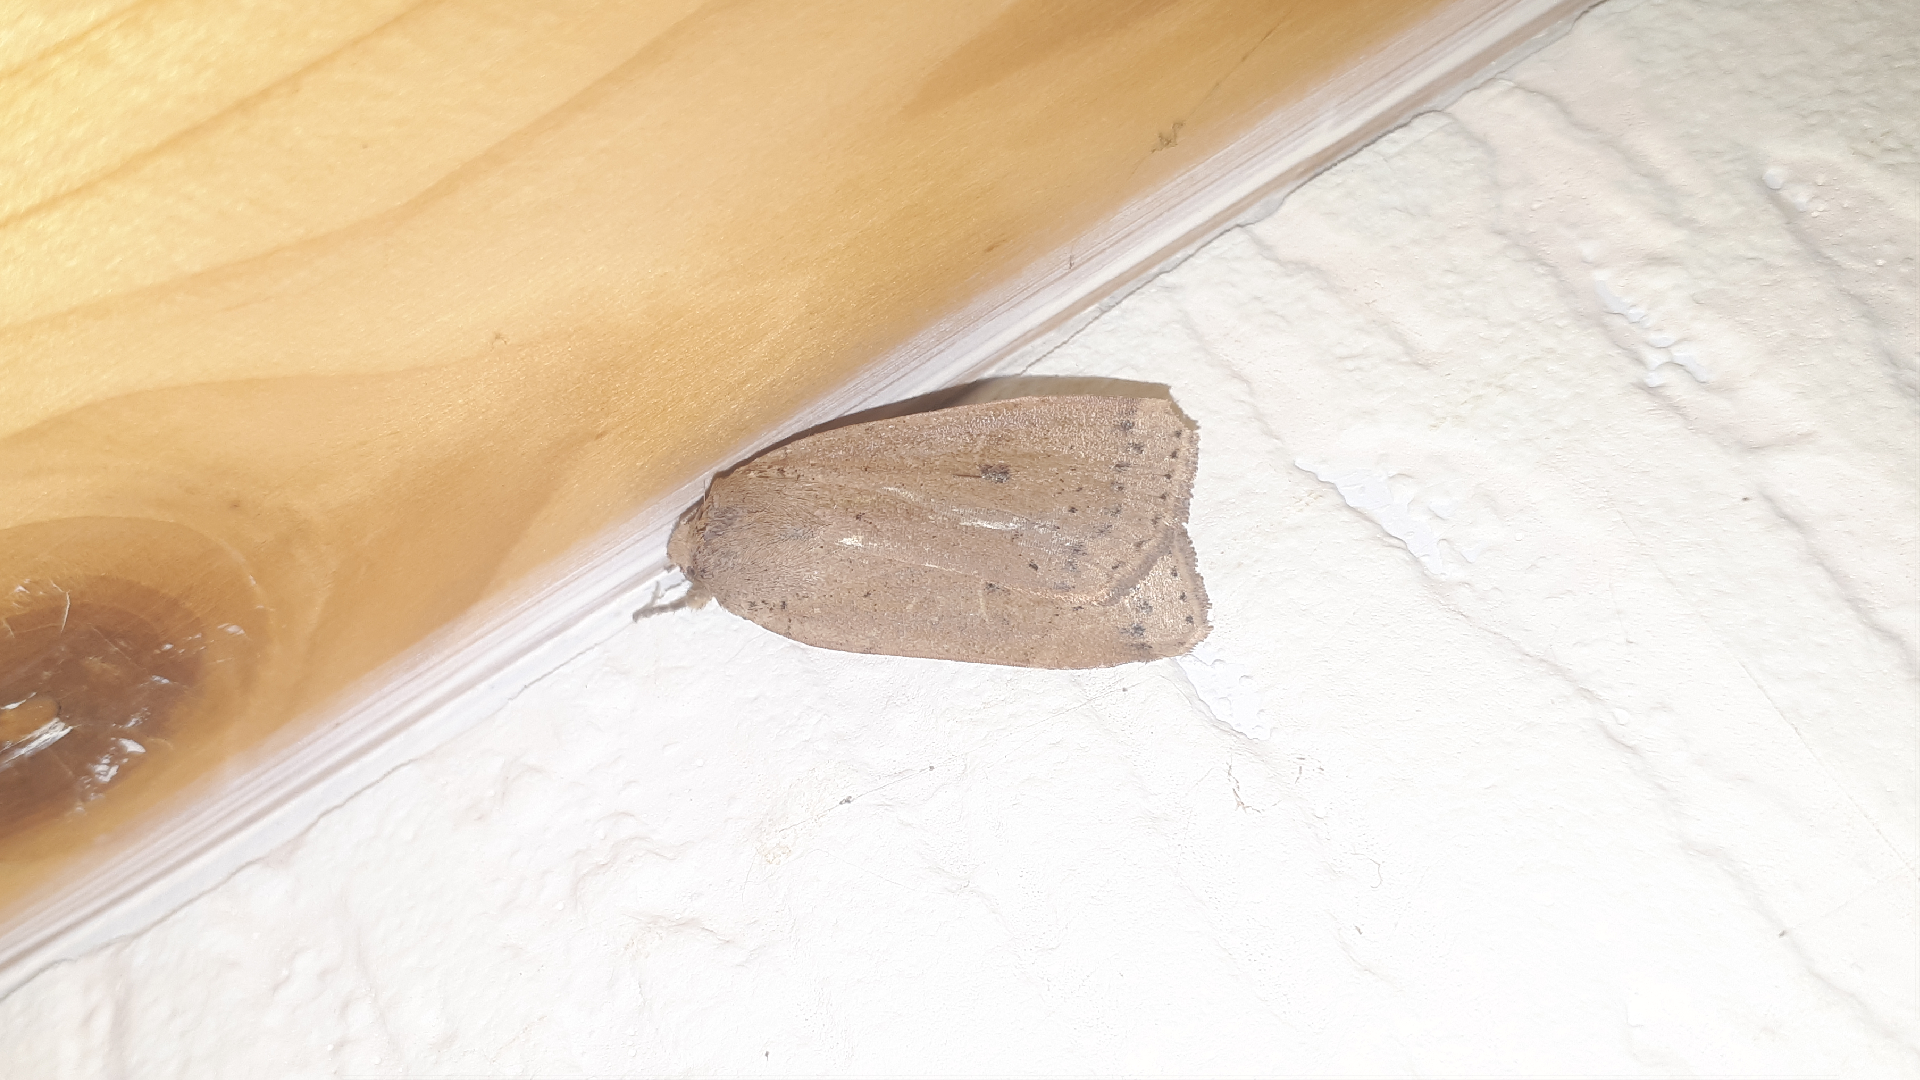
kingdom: Animalia
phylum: Arthropoda
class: Insecta
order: Lepidoptera
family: Noctuidae
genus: Noctua
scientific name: Noctua comes
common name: Lesser yellow underwing
